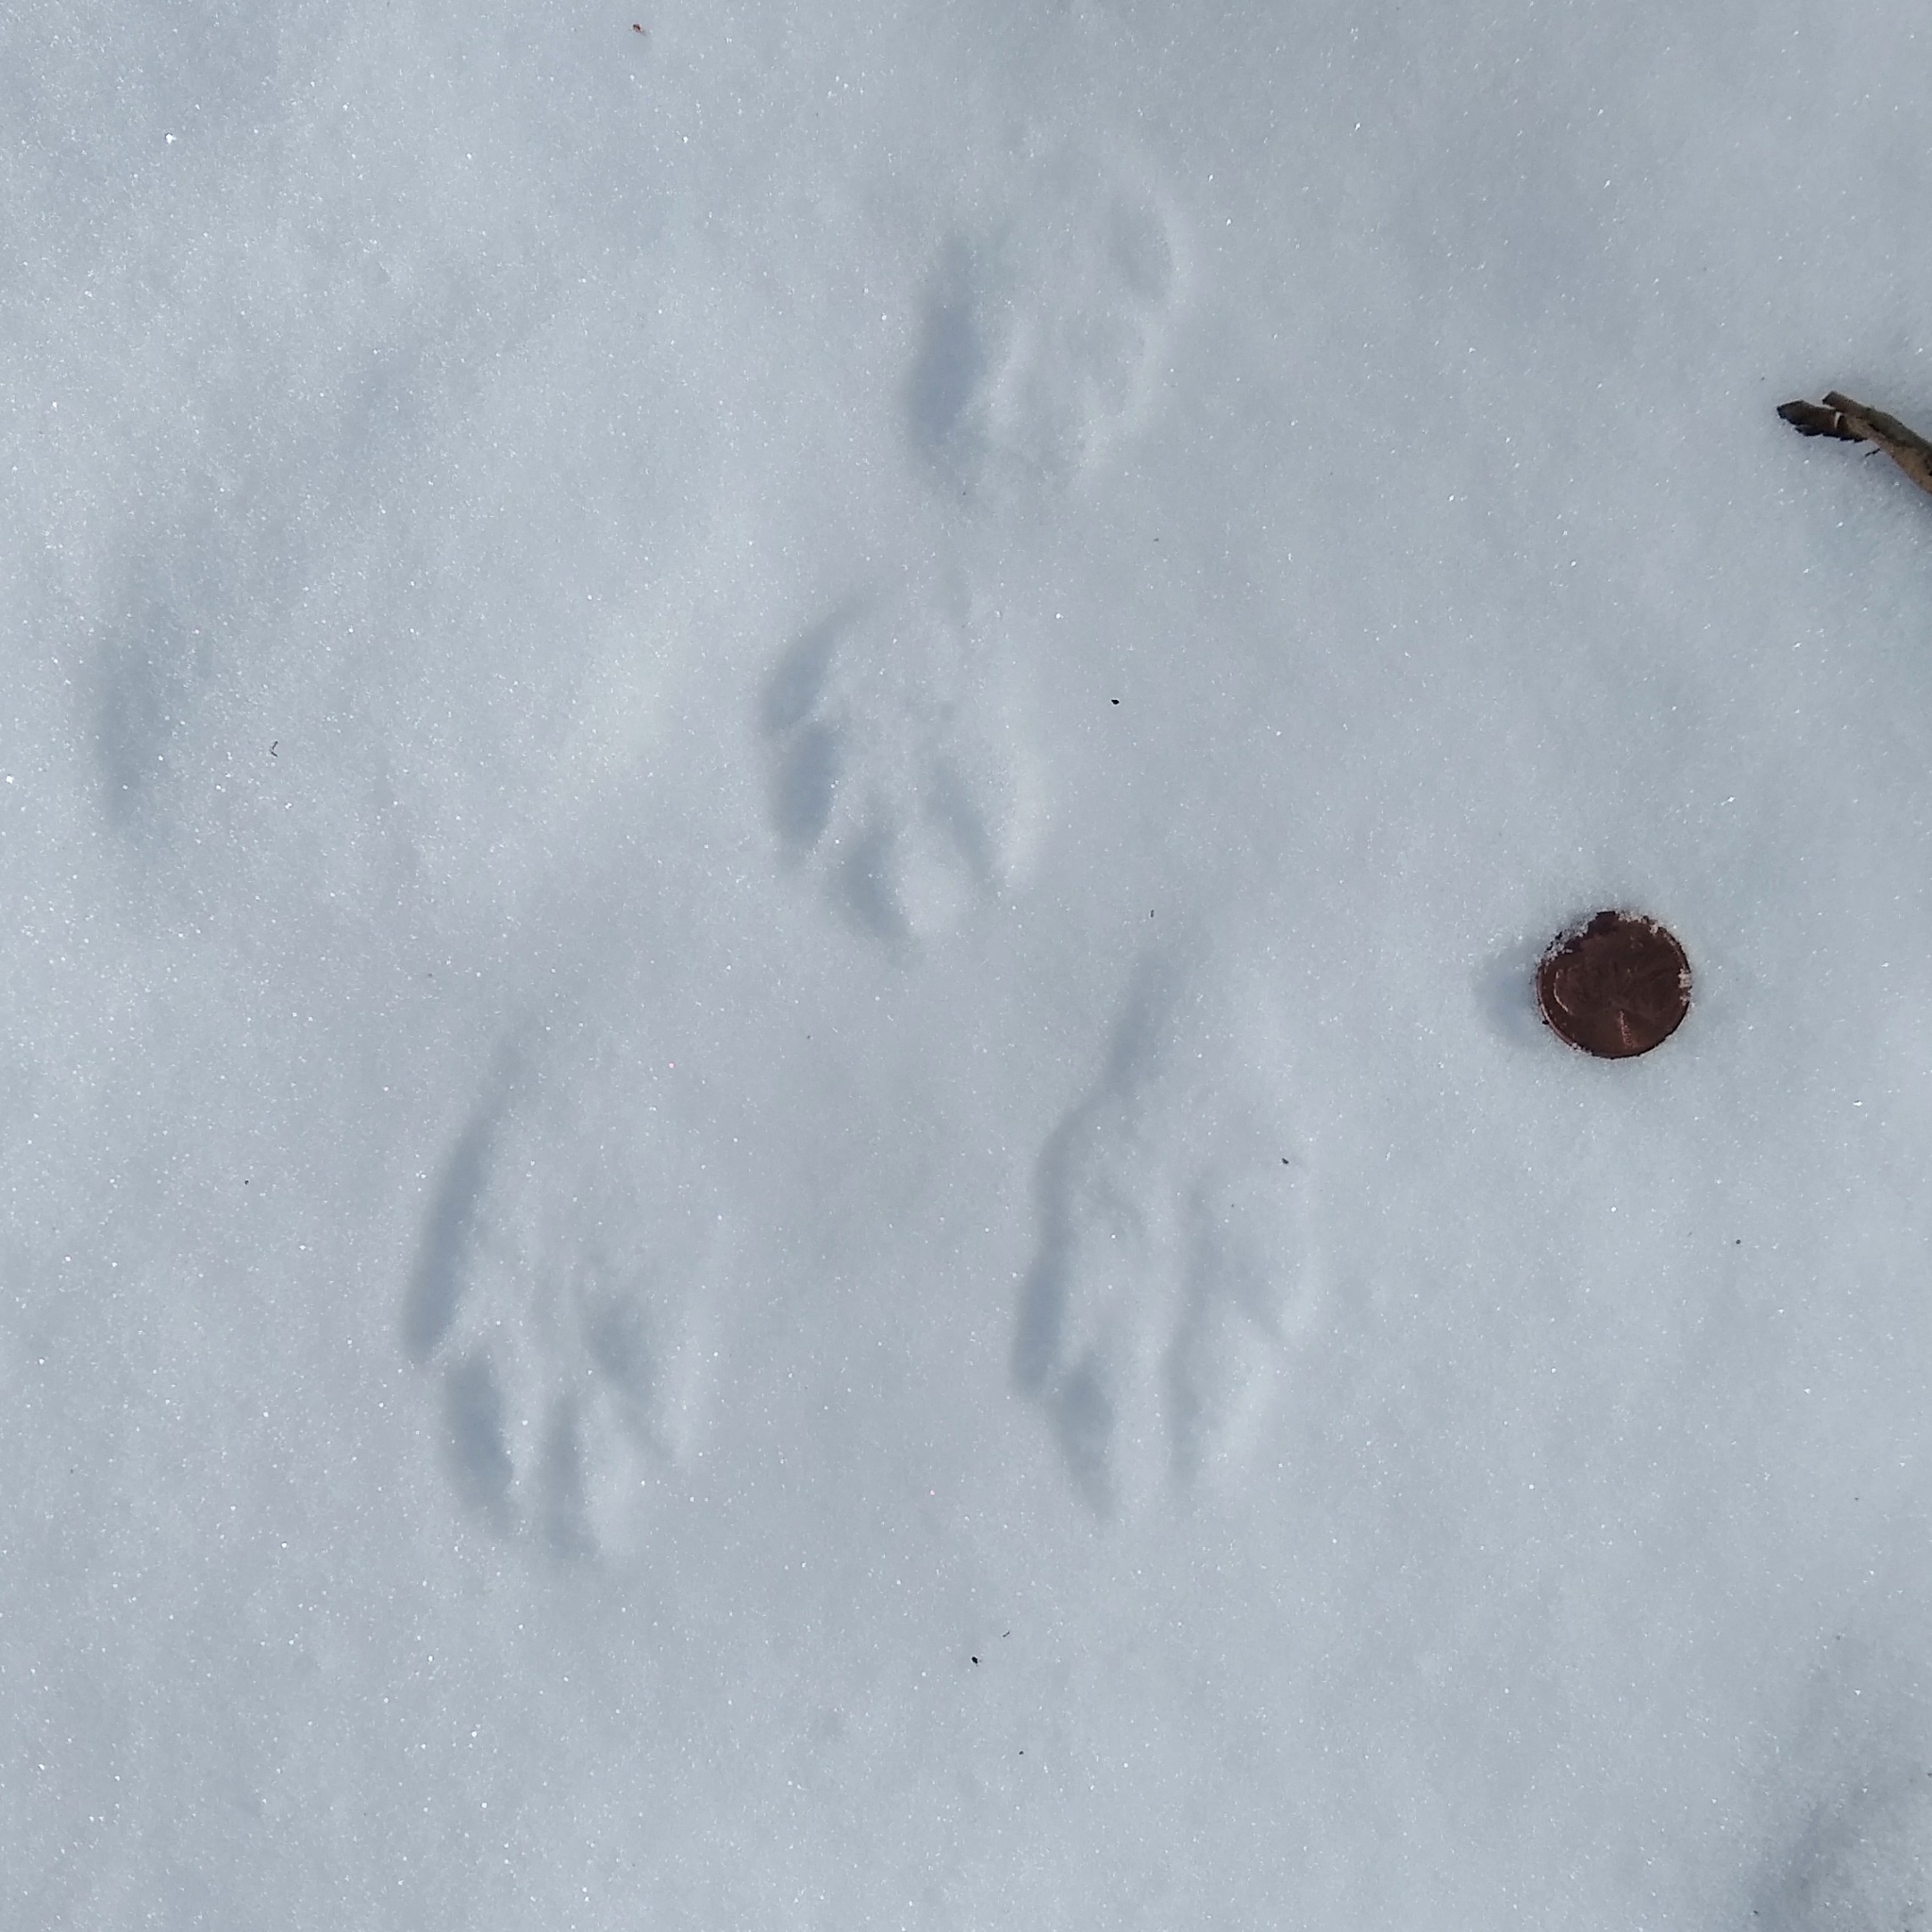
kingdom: Animalia
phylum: Chordata
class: Mammalia
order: Lagomorpha
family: Leporidae
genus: Sylvilagus
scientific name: Sylvilagus floridanus
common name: Eastern cottontail
